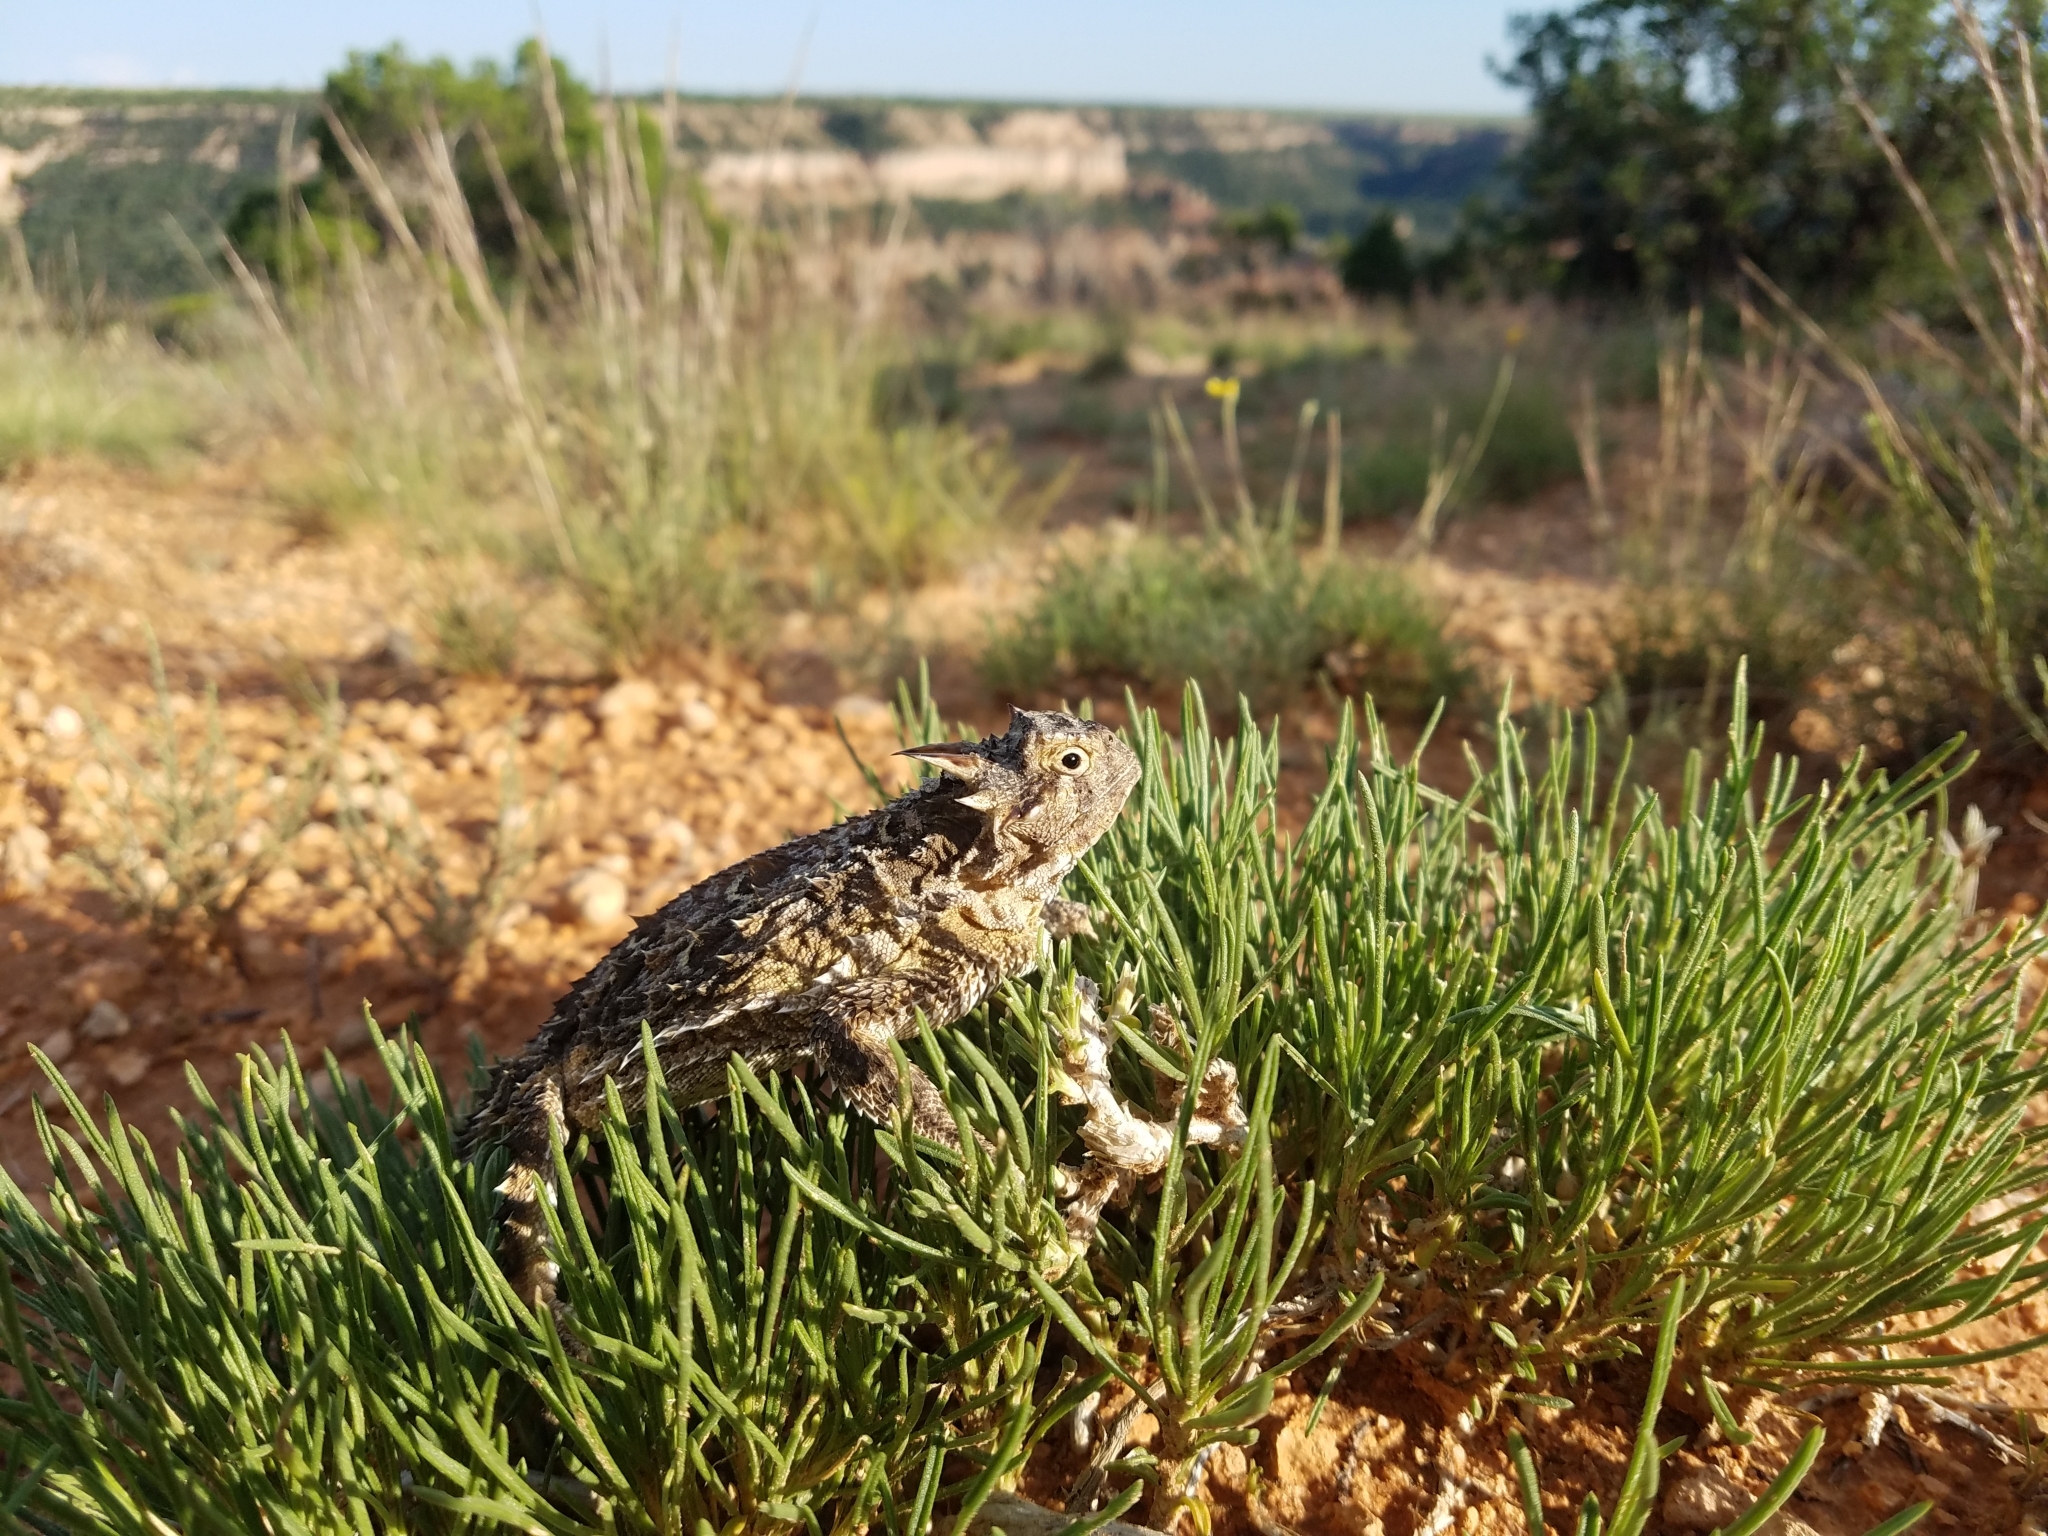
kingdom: Animalia
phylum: Chordata
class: Squamata
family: Phrynosomatidae
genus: Phrynosoma
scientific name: Phrynosoma cornutum
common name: Texas horned lizard
